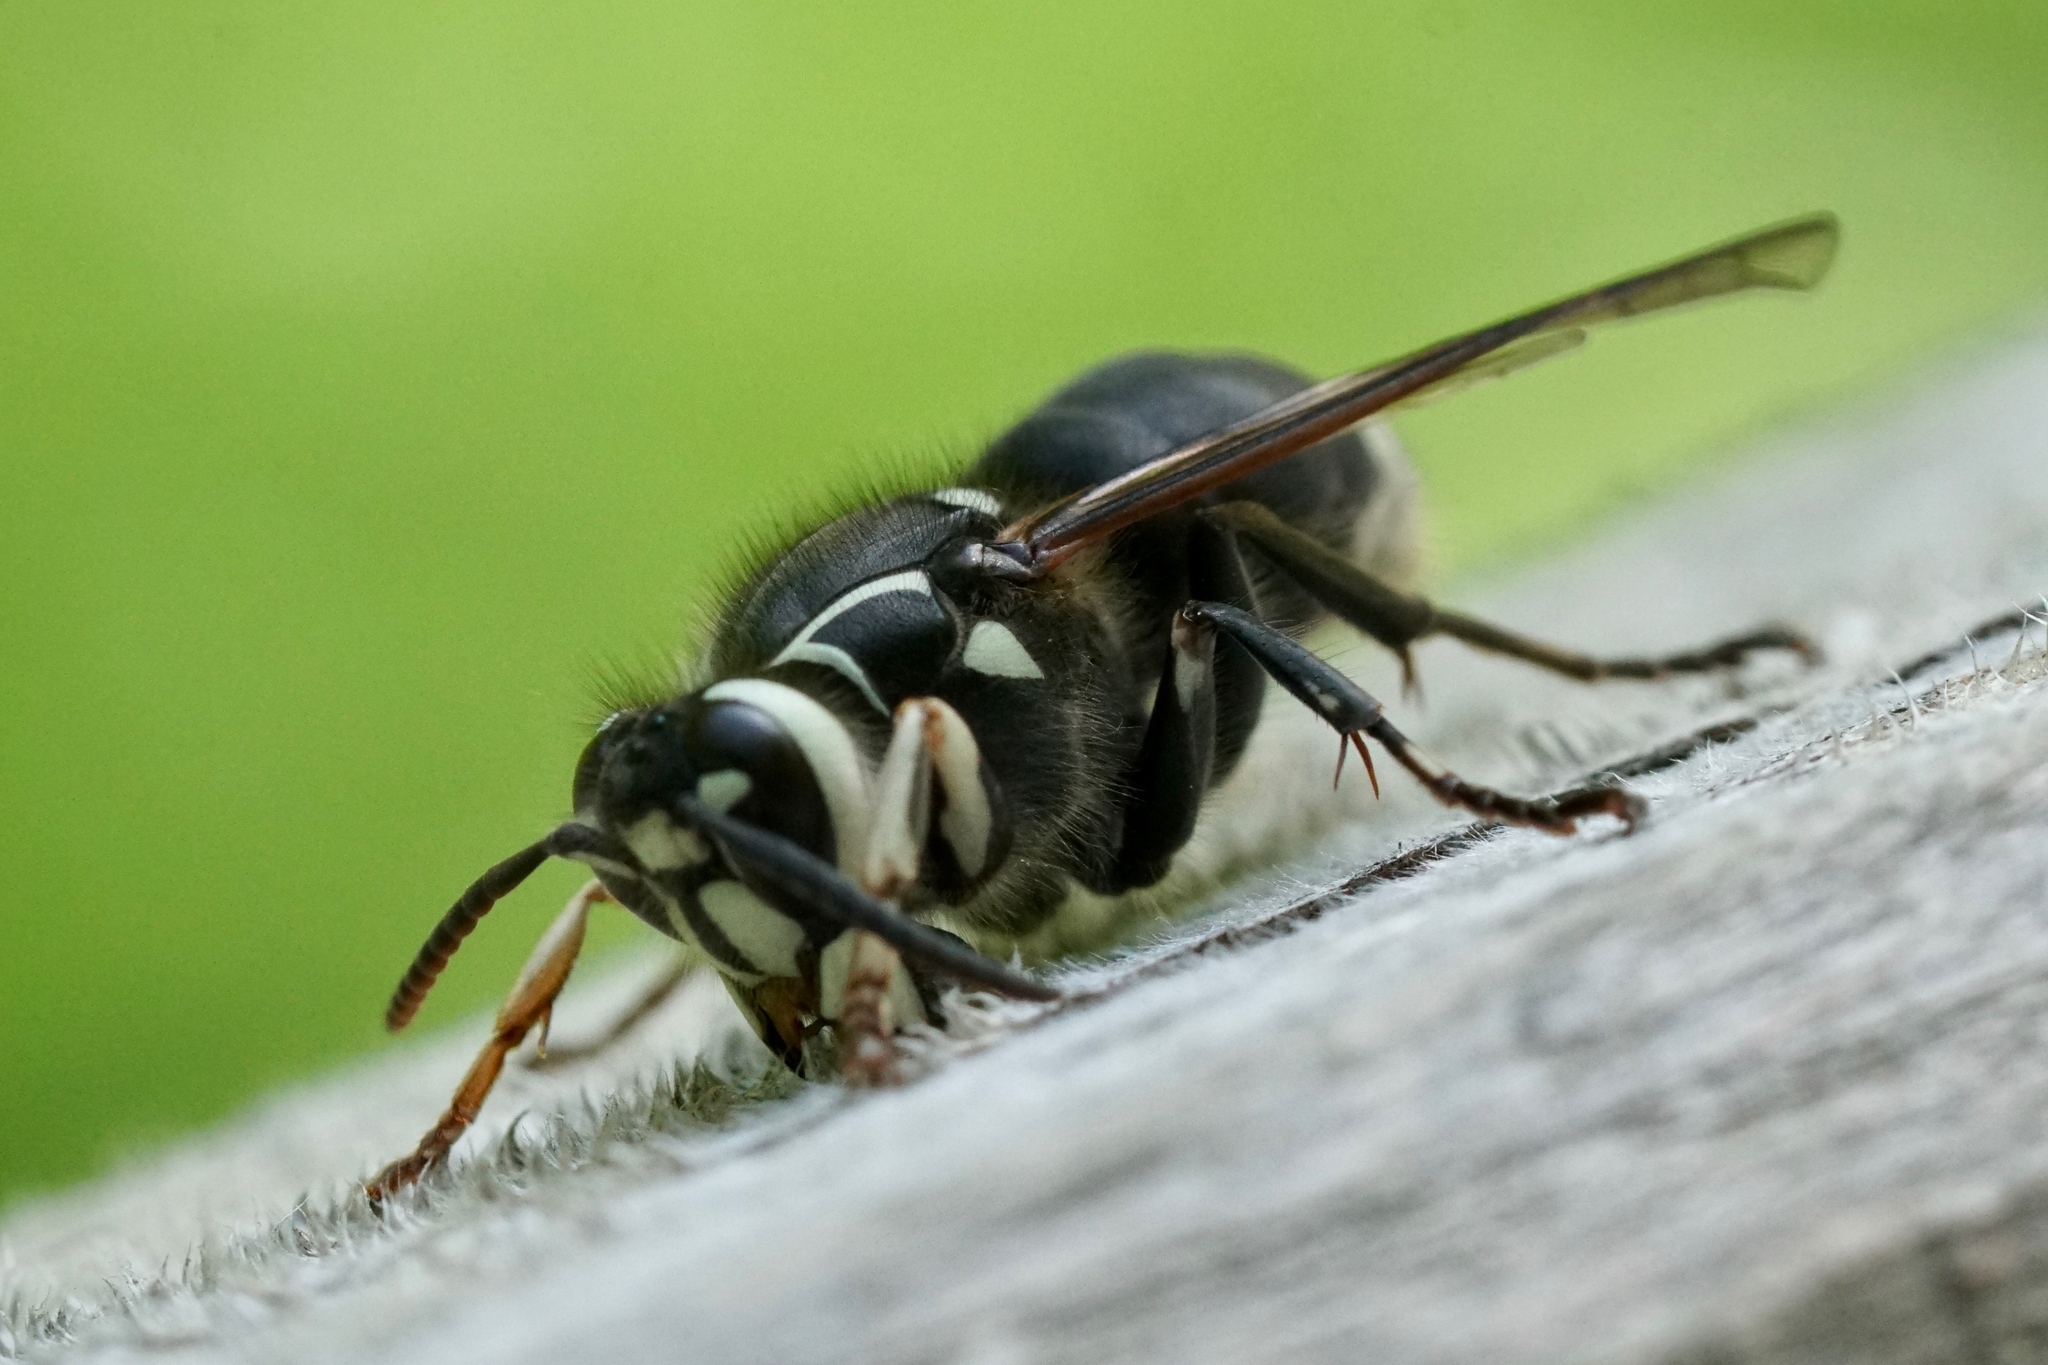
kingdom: Animalia
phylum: Arthropoda
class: Insecta
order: Hymenoptera
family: Vespidae
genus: Dolichovespula
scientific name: Dolichovespula maculata
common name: Bald-faced hornet
